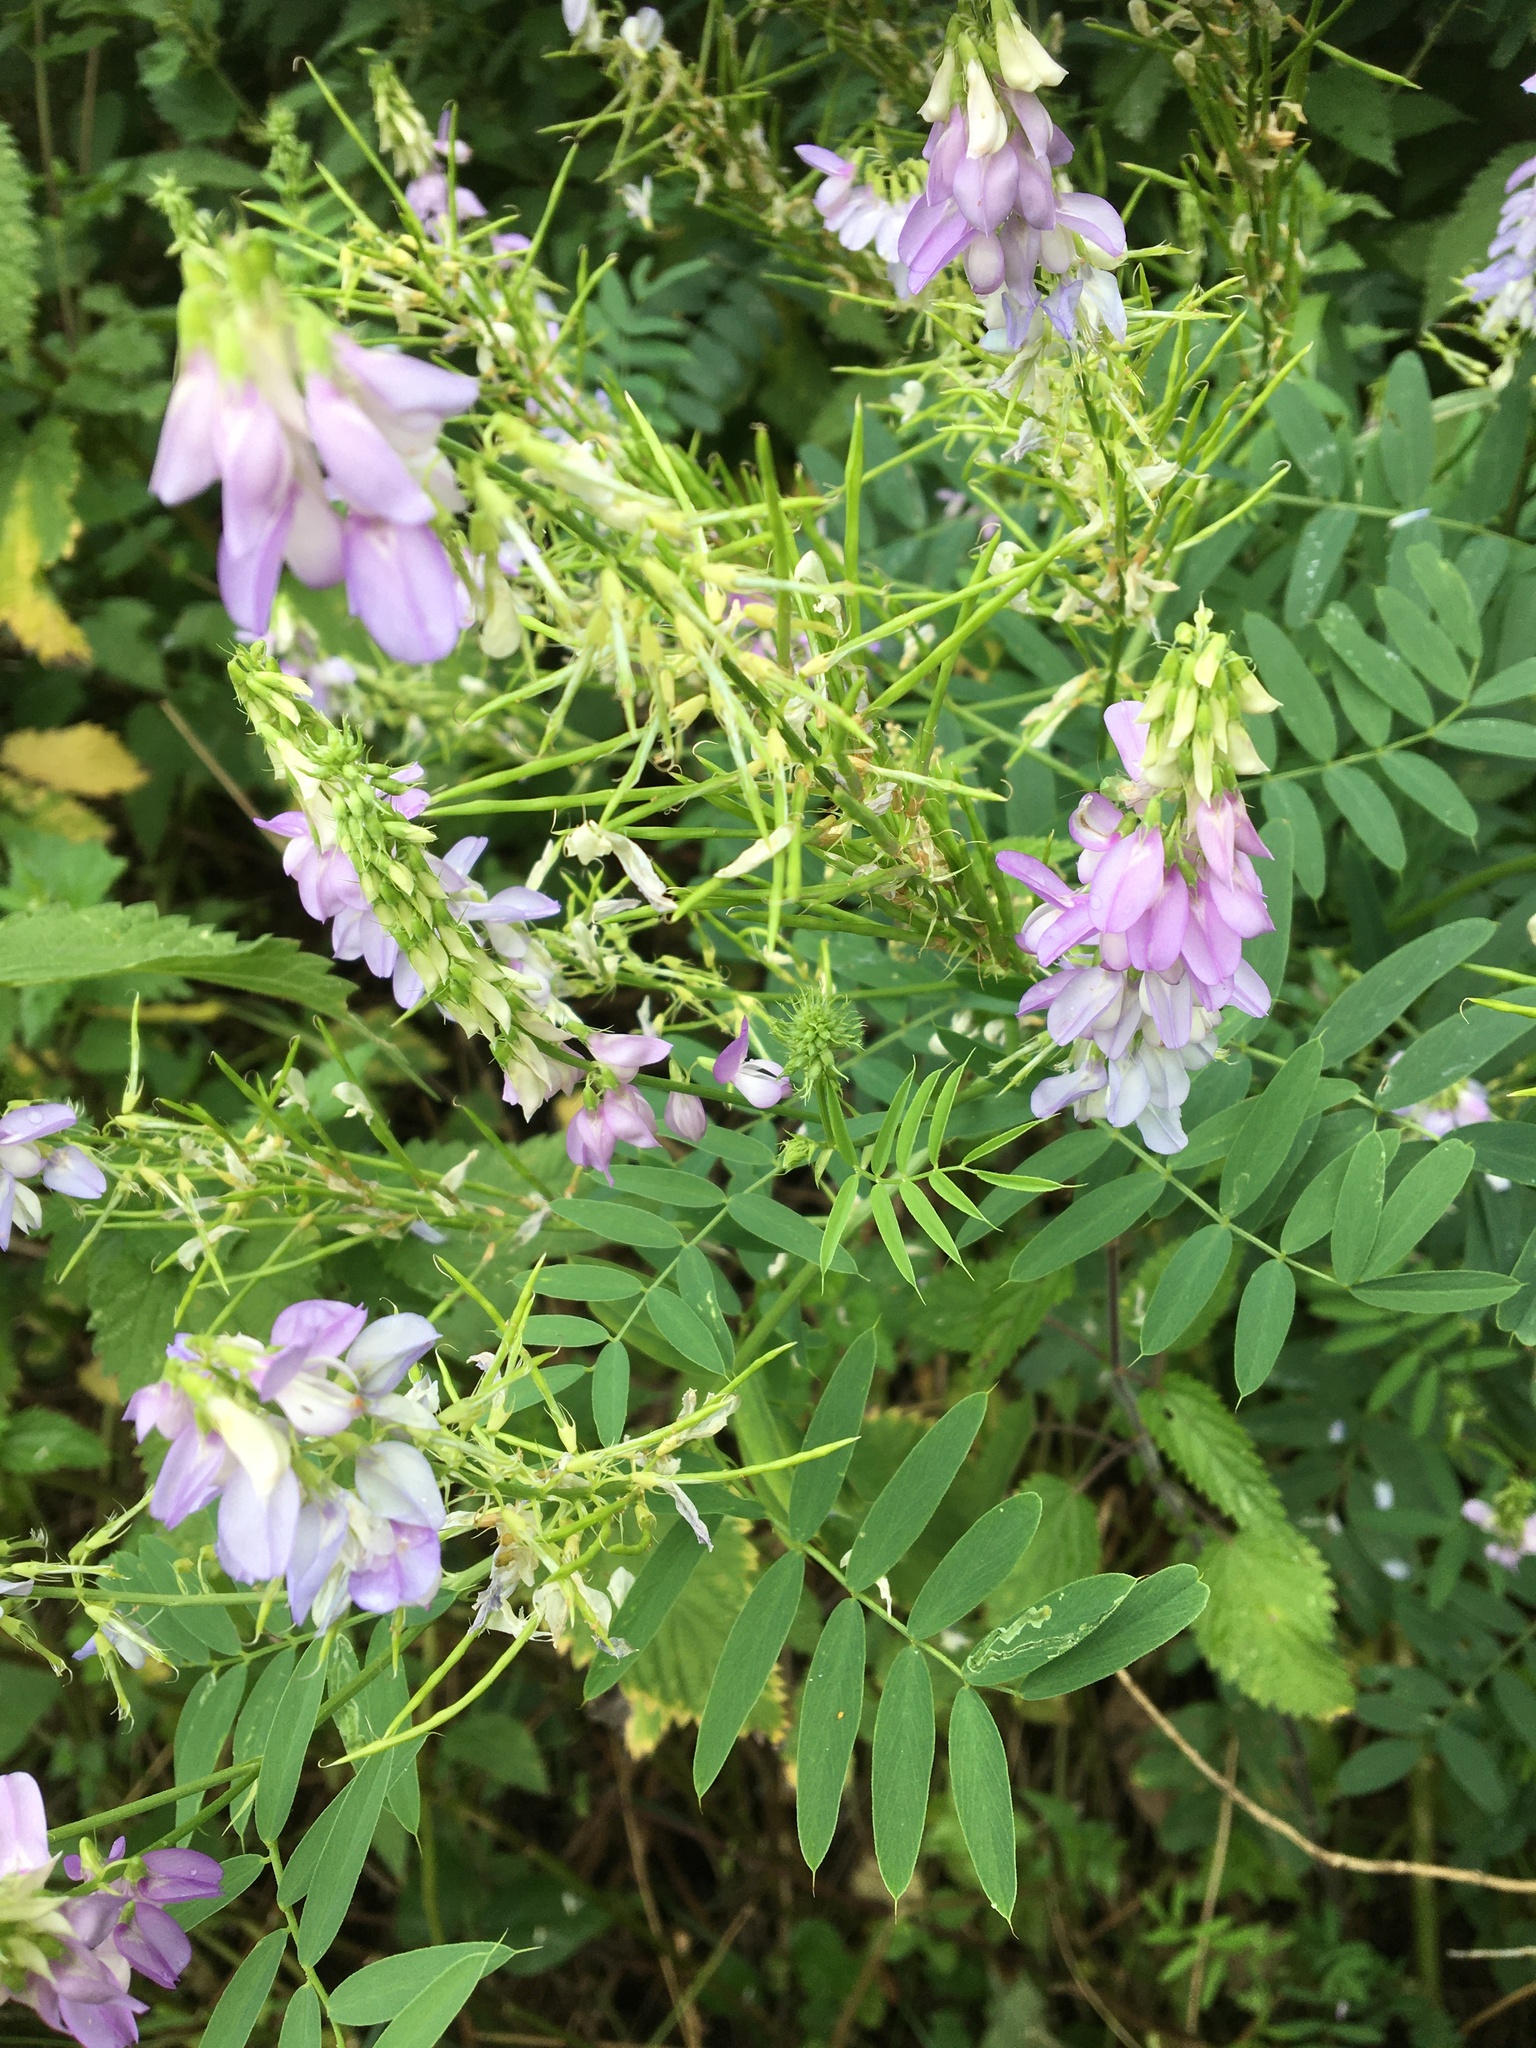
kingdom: Plantae
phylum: Tracheophyta
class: Magnoliopsida
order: Fabales
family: Fabaceae
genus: Galega
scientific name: Galega officinalis
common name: Goat's-rue
